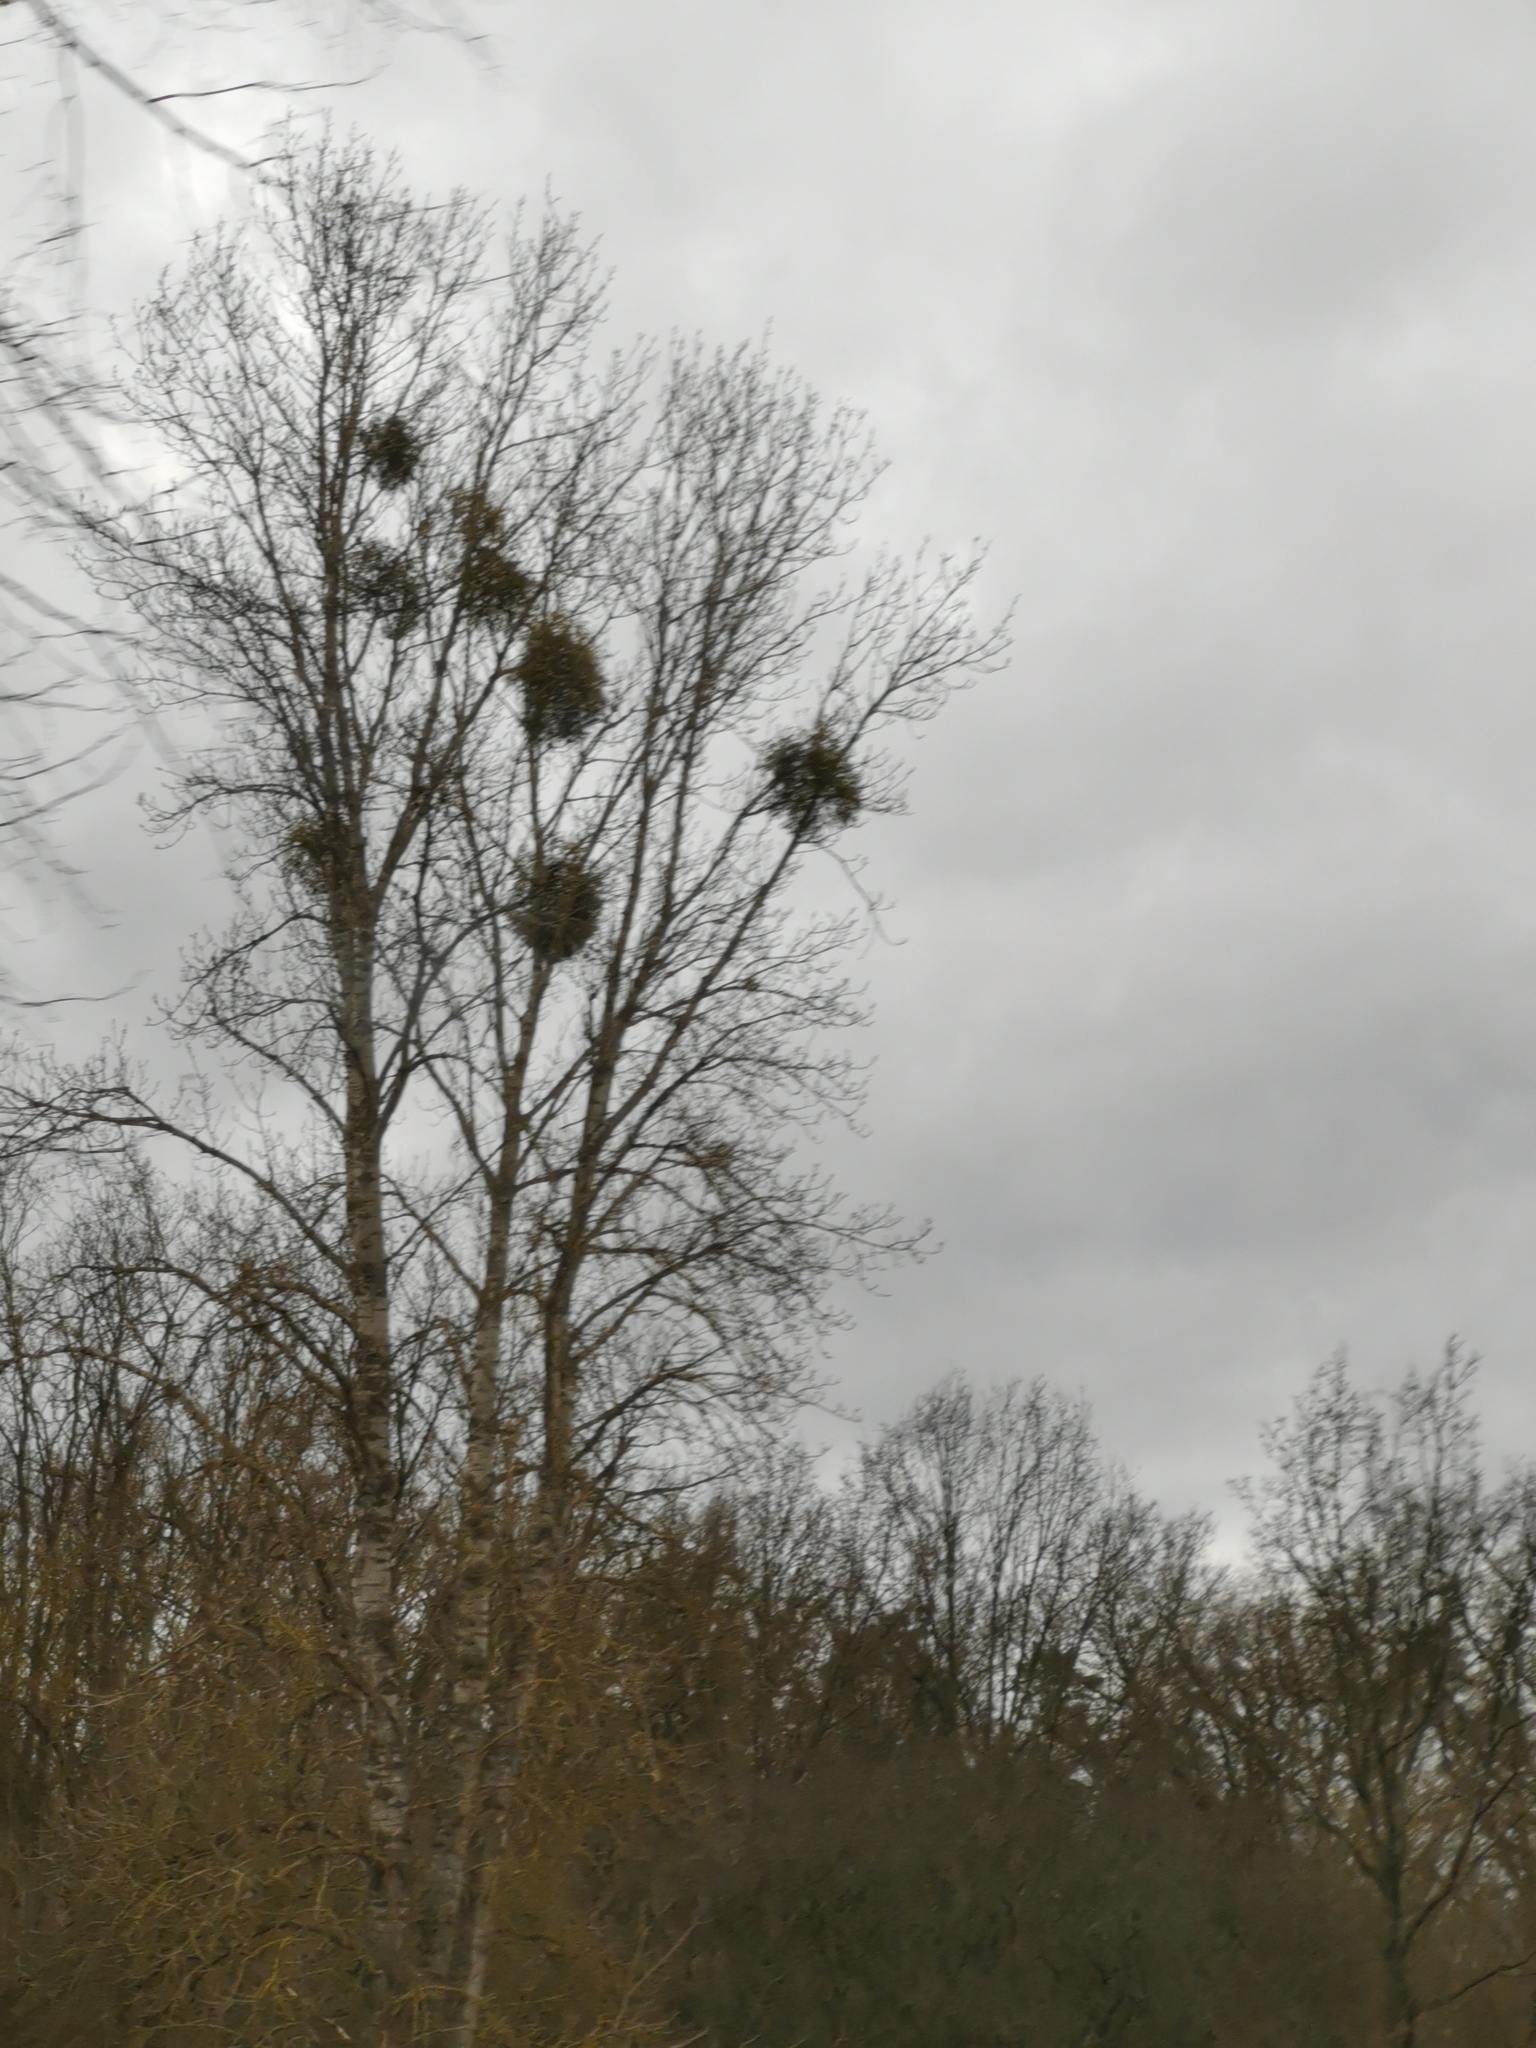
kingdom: Plantae
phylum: Tracheophyta
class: Magnoliopsida
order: Santalales
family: Viscaceae
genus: Viscum
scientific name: Viscum album
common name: Mistletoe
